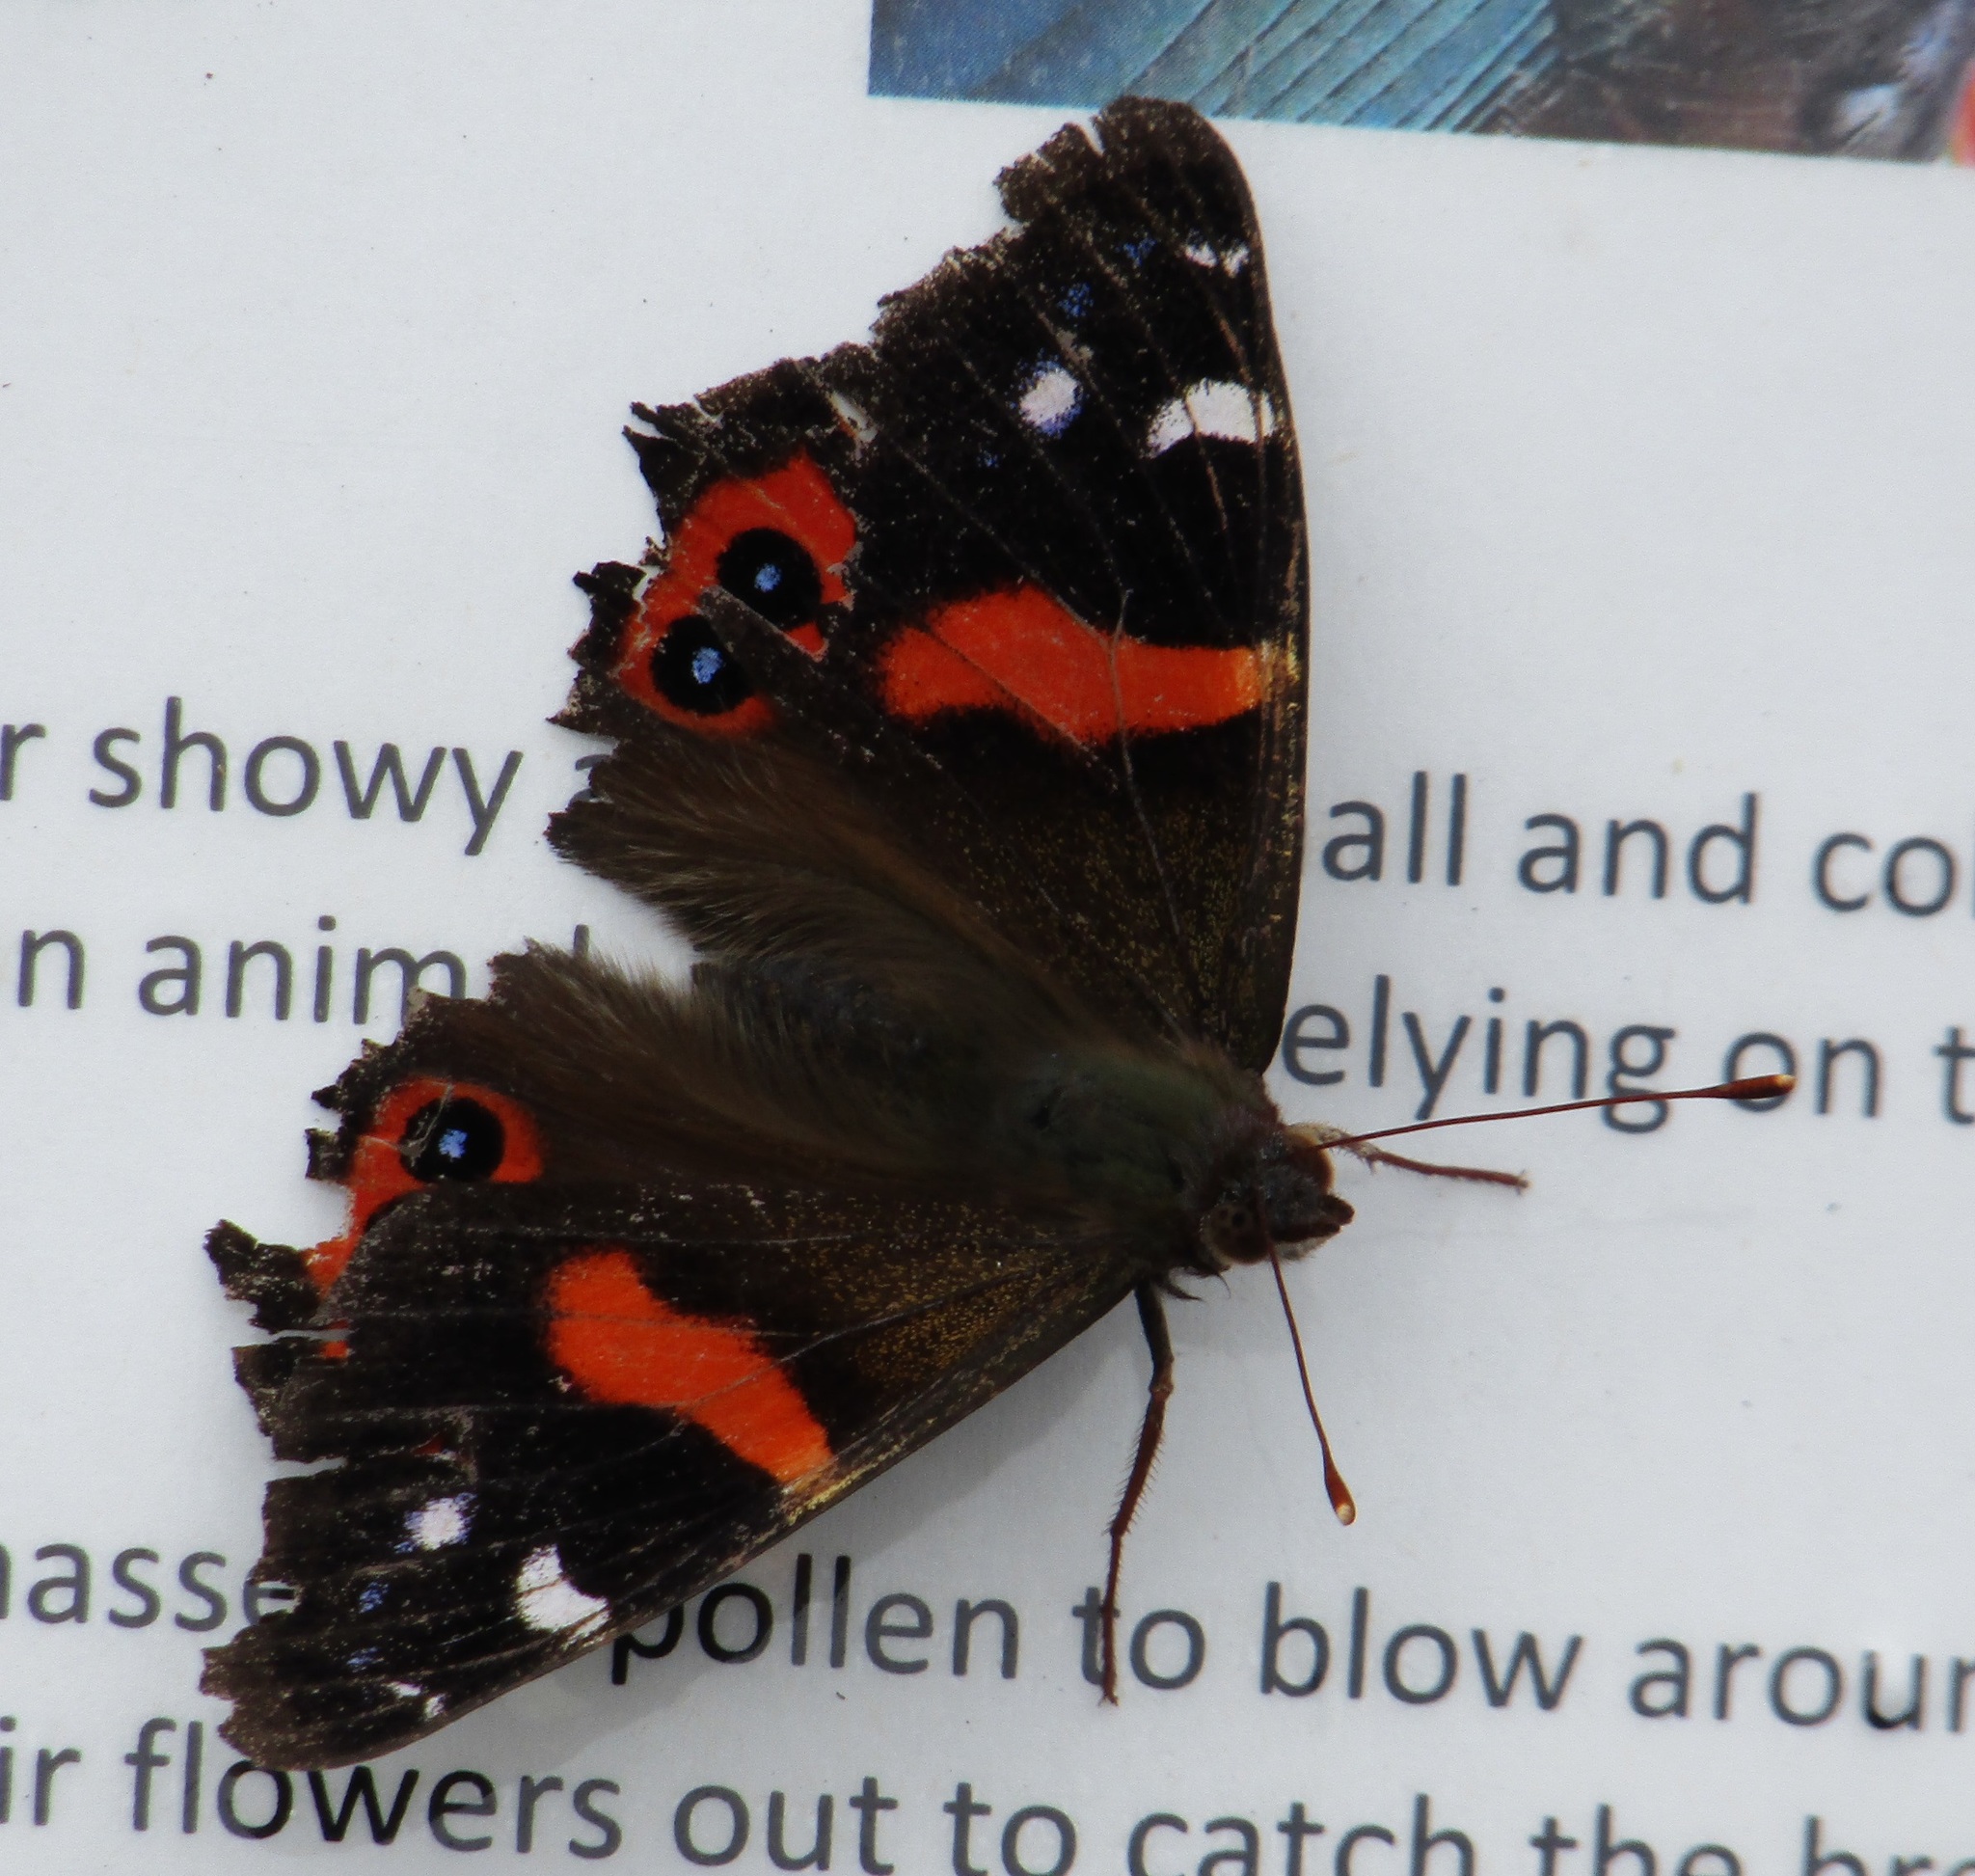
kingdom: Animalia
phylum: Arthropoda
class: Insecta
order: Lepidoptera
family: Nymphalidae
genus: Vanessa
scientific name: Vanessa gonerilla
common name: New zealand red admiral
